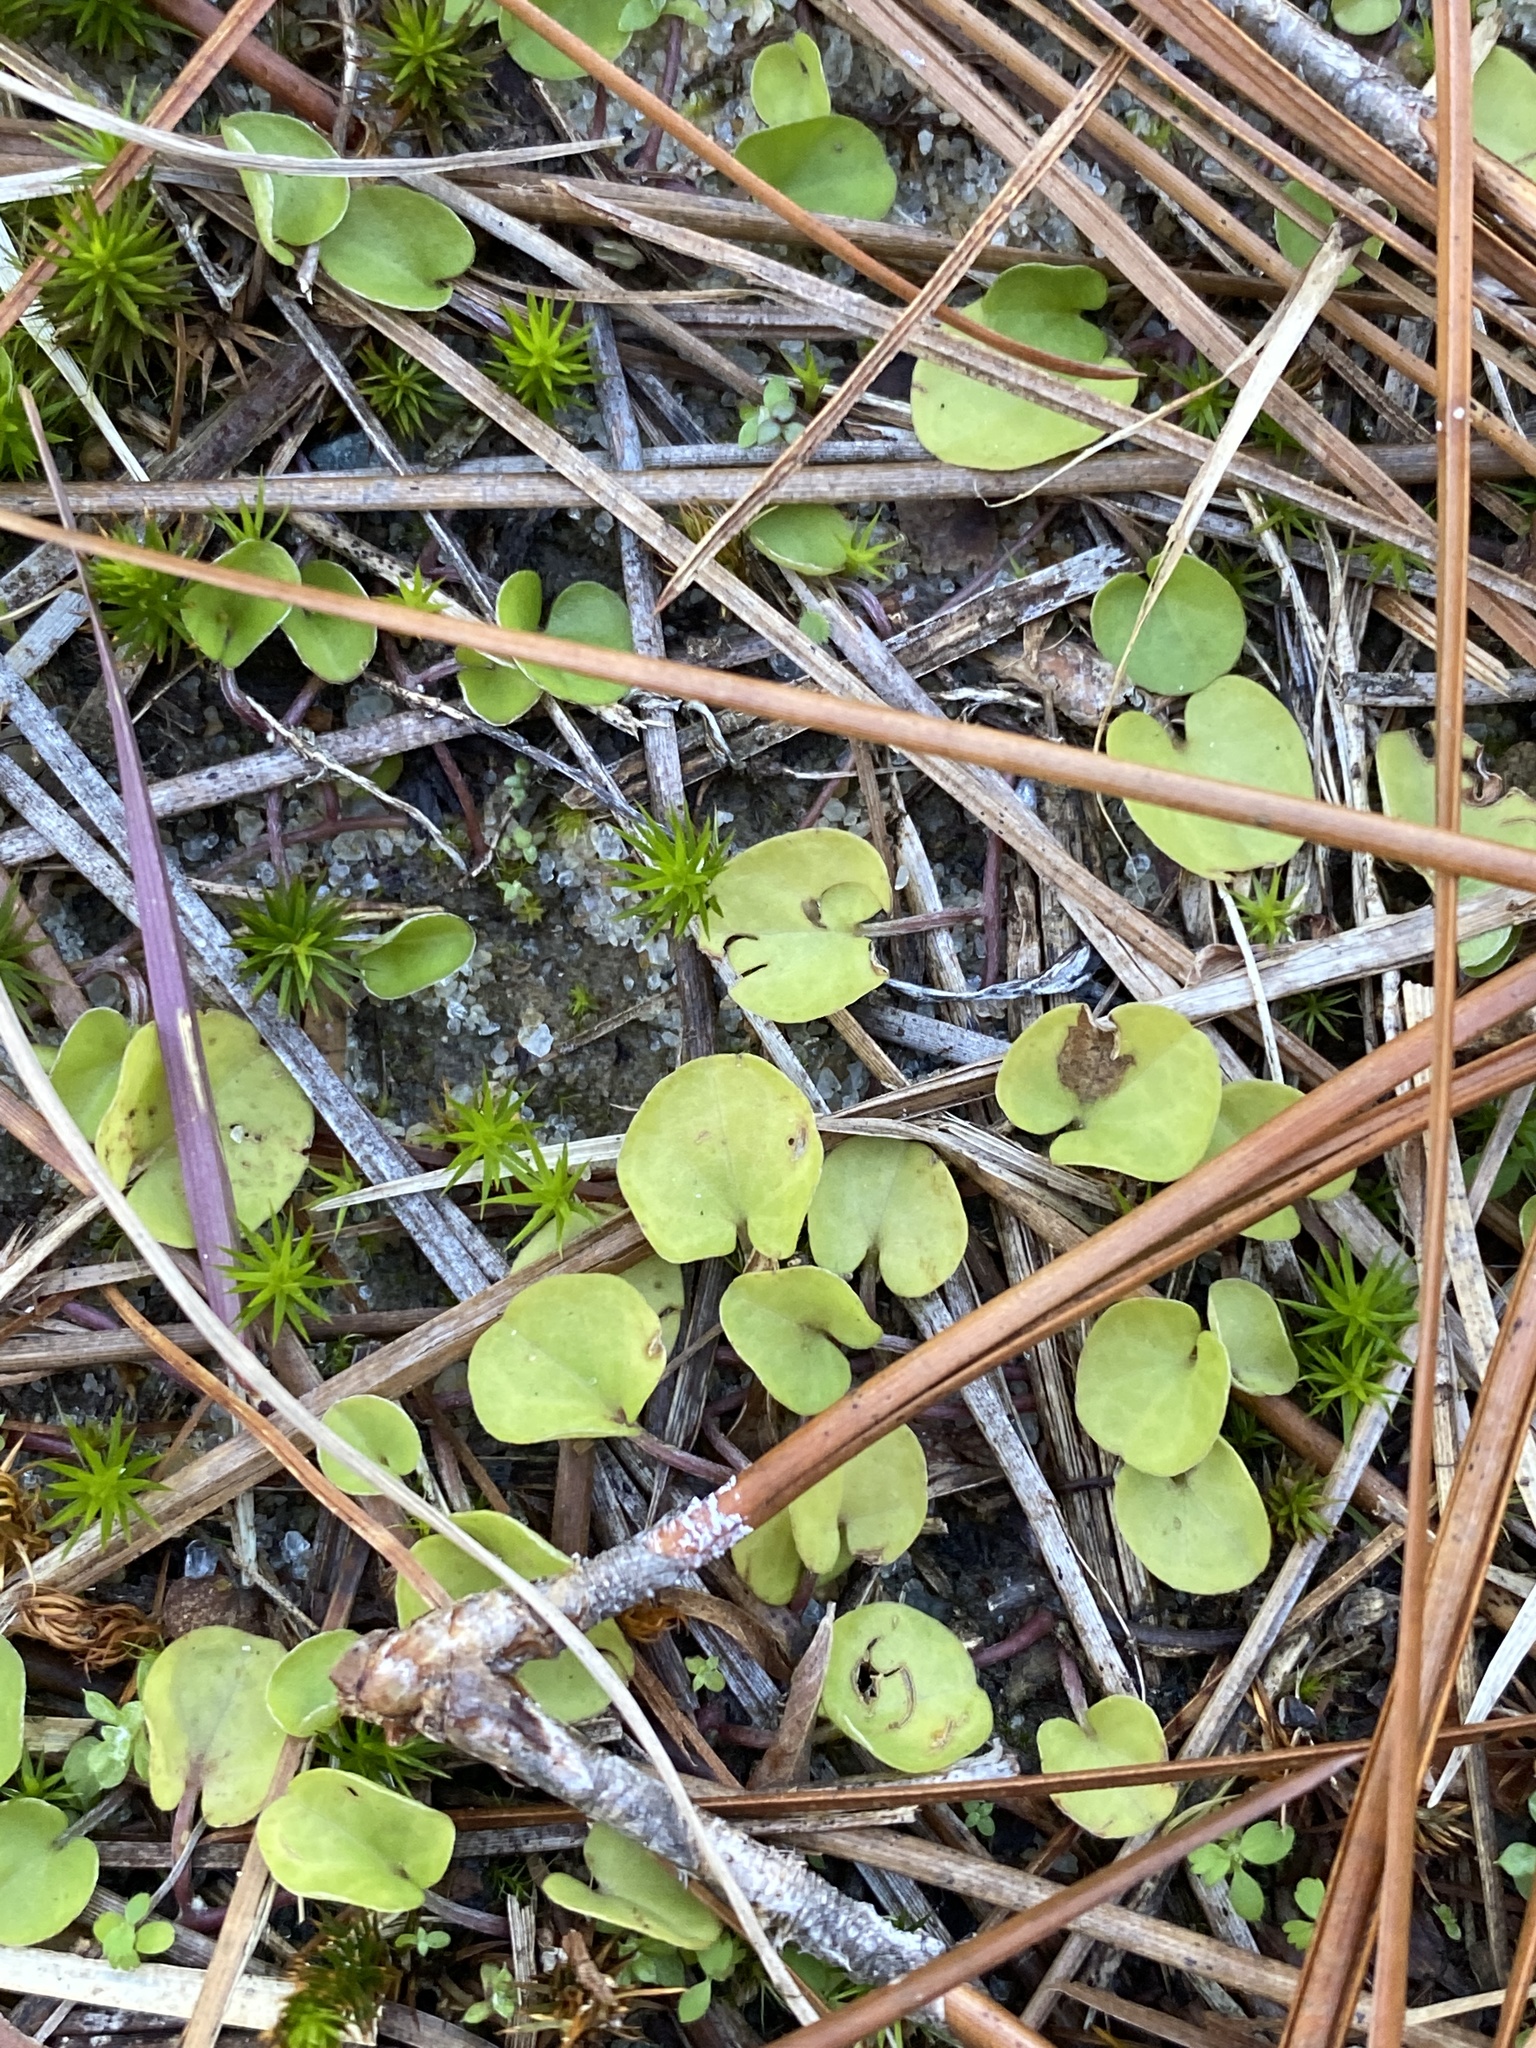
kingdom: Plantae
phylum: Tracheophyta
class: Magnoliopsida
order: Solanales
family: Convolvulaceae
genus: Dichondra
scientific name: Dichondra carolinensis
